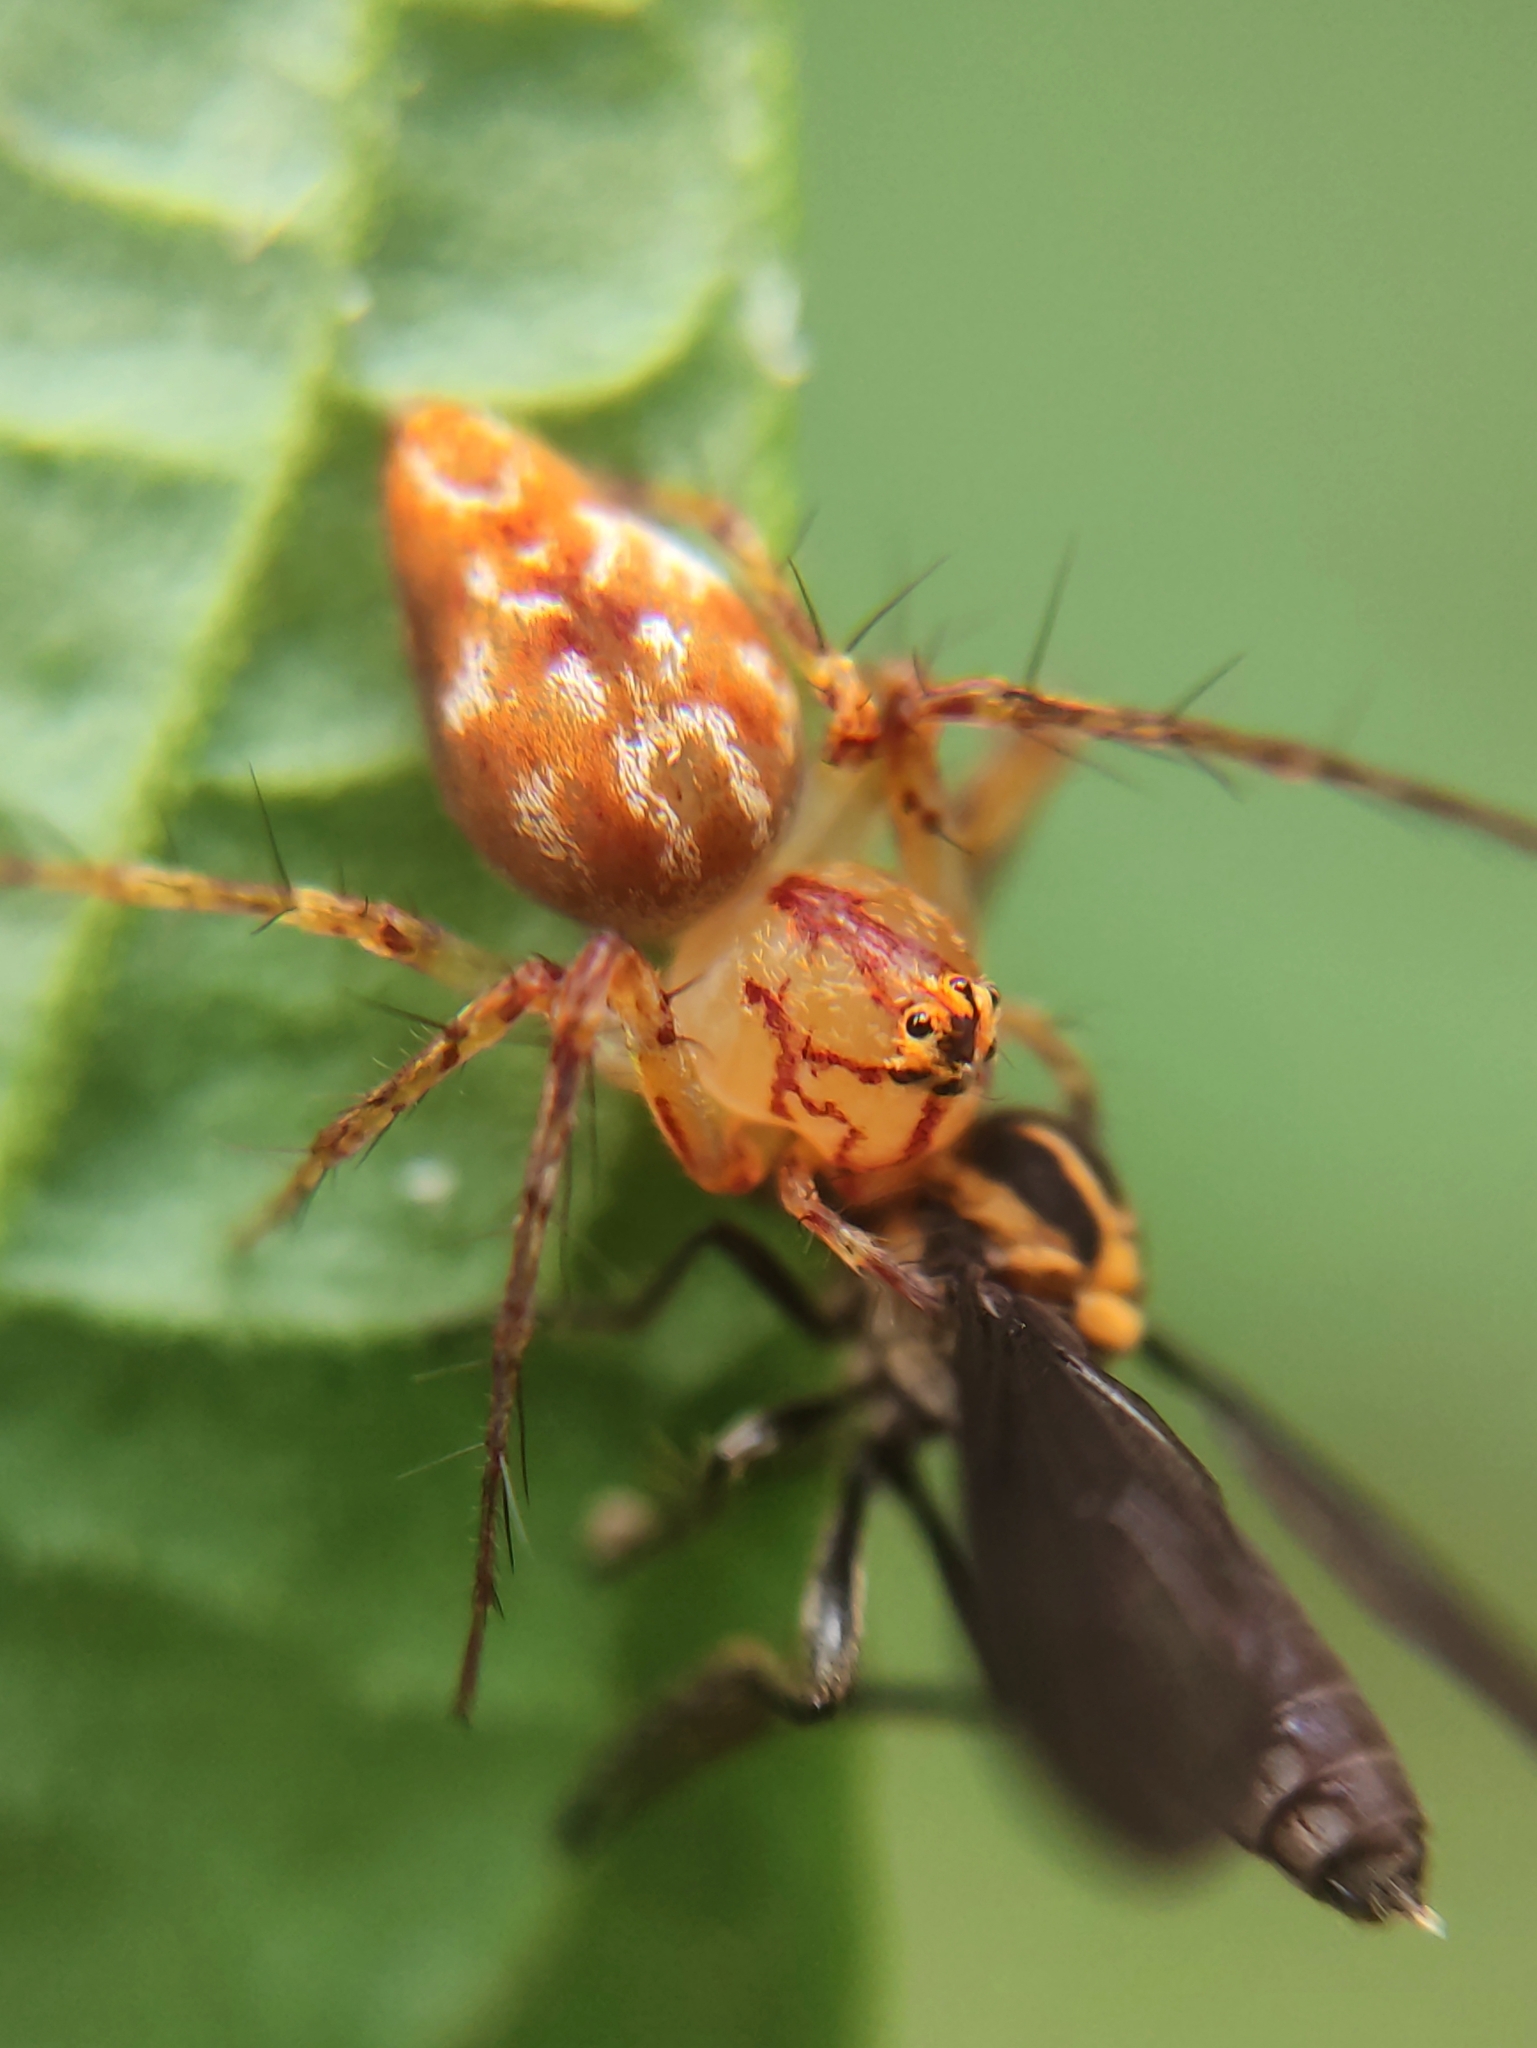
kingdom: Animalia
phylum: Arthropoda
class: Arachnida
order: Araneae
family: Oxyopidae
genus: Oxyopes
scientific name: Oxyopes incertus
